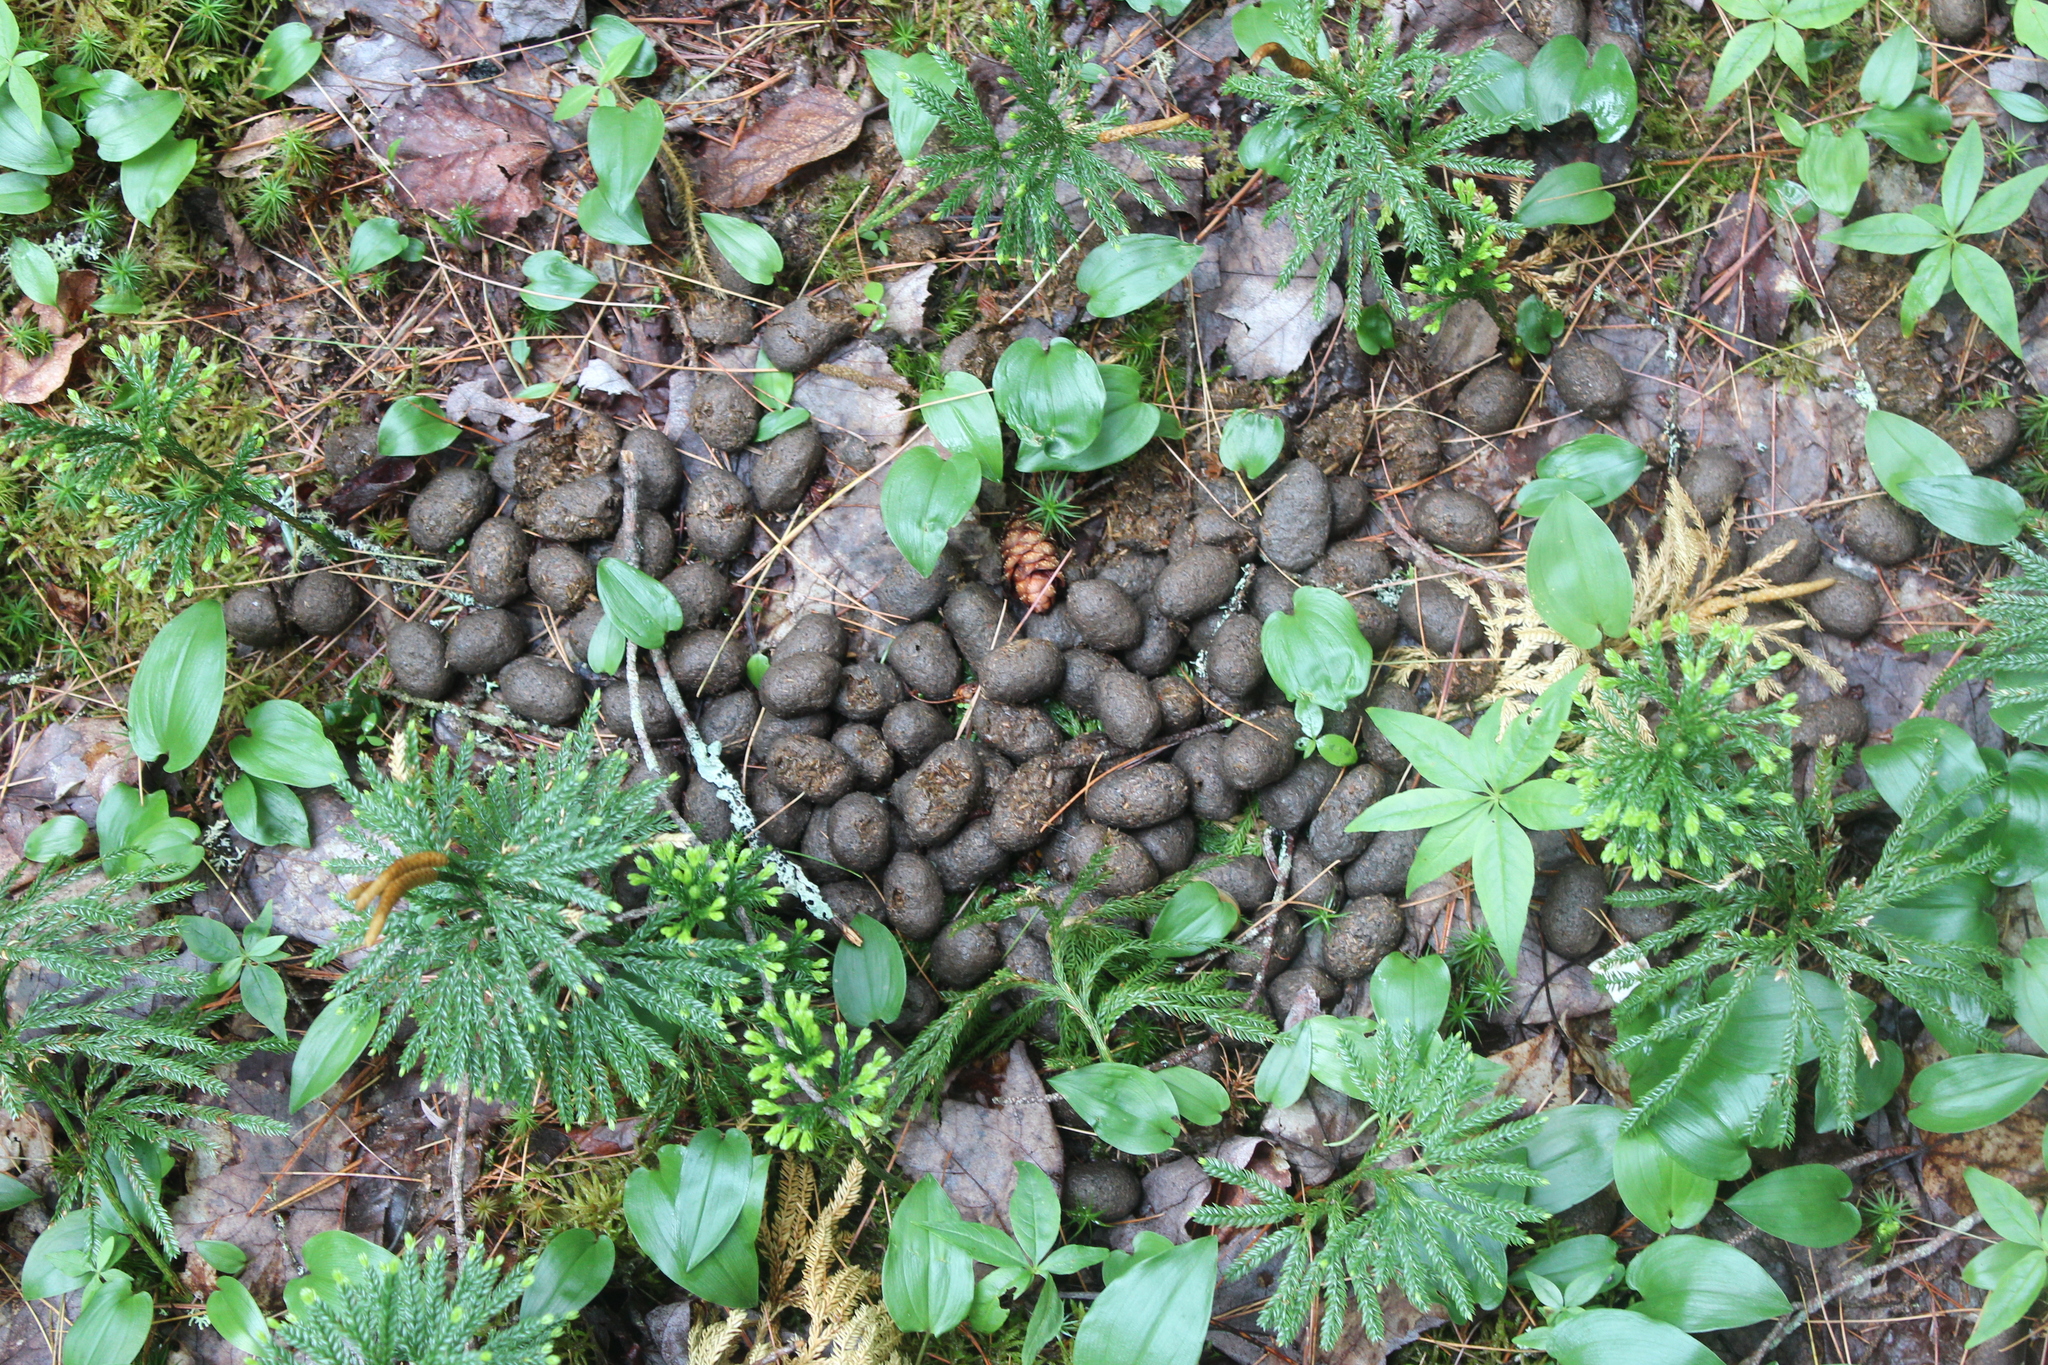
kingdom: Animalia
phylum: Chordata
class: Mammalia
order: Artiodactyla
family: Cervidae
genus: Alces
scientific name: Alces alces
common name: Moose
